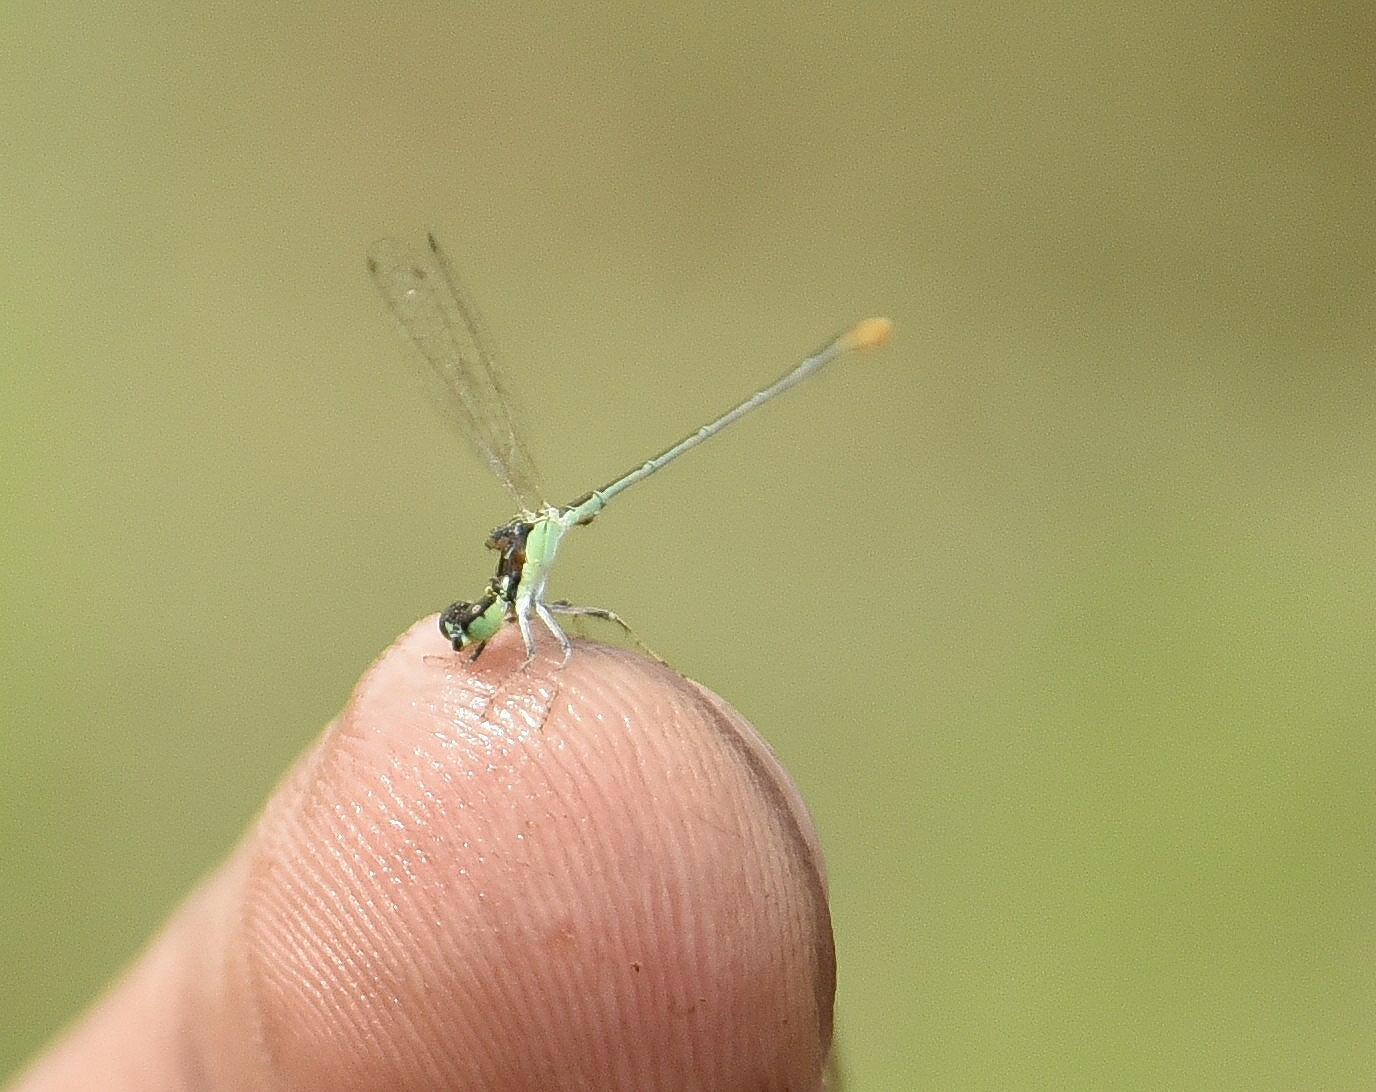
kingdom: Animalia
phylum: Arthropoda
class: Insecta
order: Odonata
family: Coenagrionidae
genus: Agriocnemis
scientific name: Agriocnemis pygmaea
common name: Pygmy wisp
